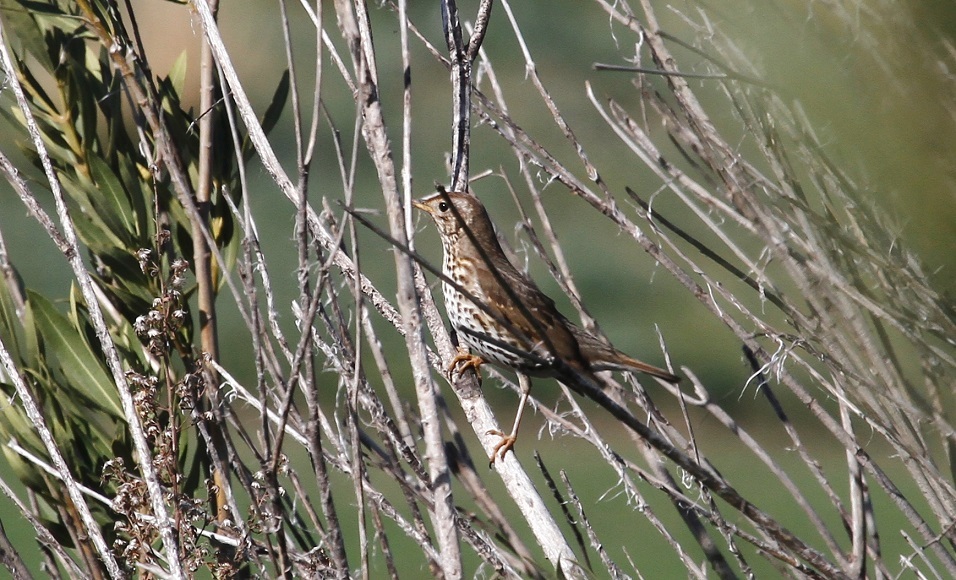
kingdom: Animalia
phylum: Chordata
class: Aves
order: Passeriformes
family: Turdidae
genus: Turdus
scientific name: Turdus philomelos
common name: Song thrush
